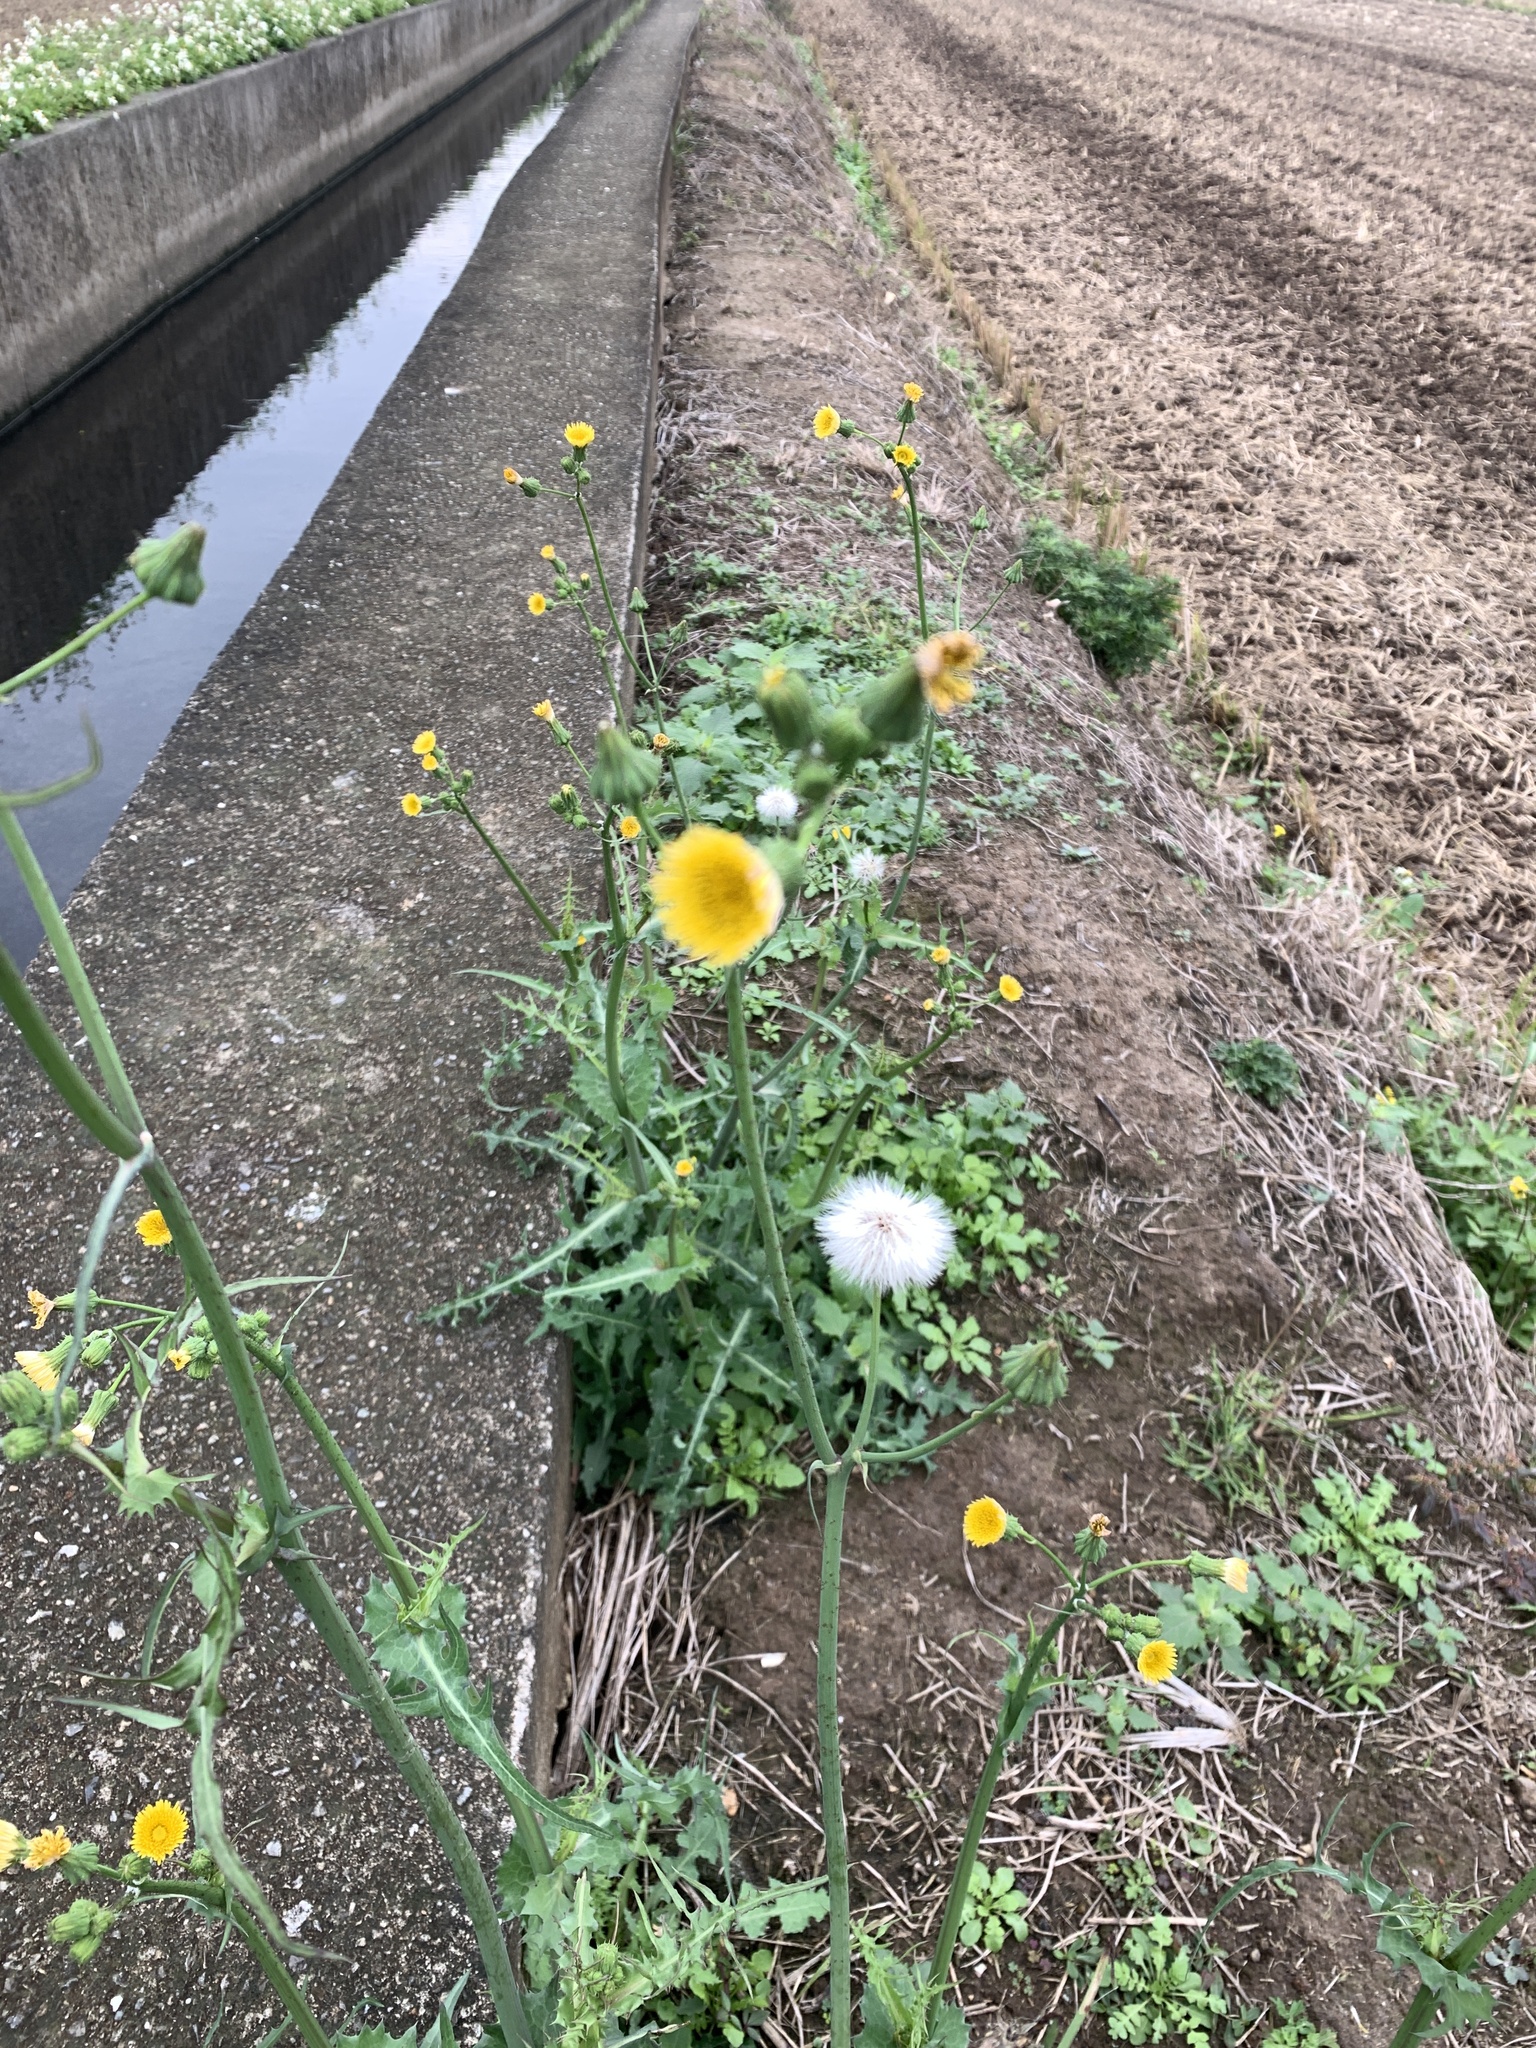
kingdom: Plantae
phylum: Tracheophyta
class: Magnoliopsida
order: Asterales
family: Asteraceae
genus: Sonchus
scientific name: Sonchus oleraceus
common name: Common sowthistle
